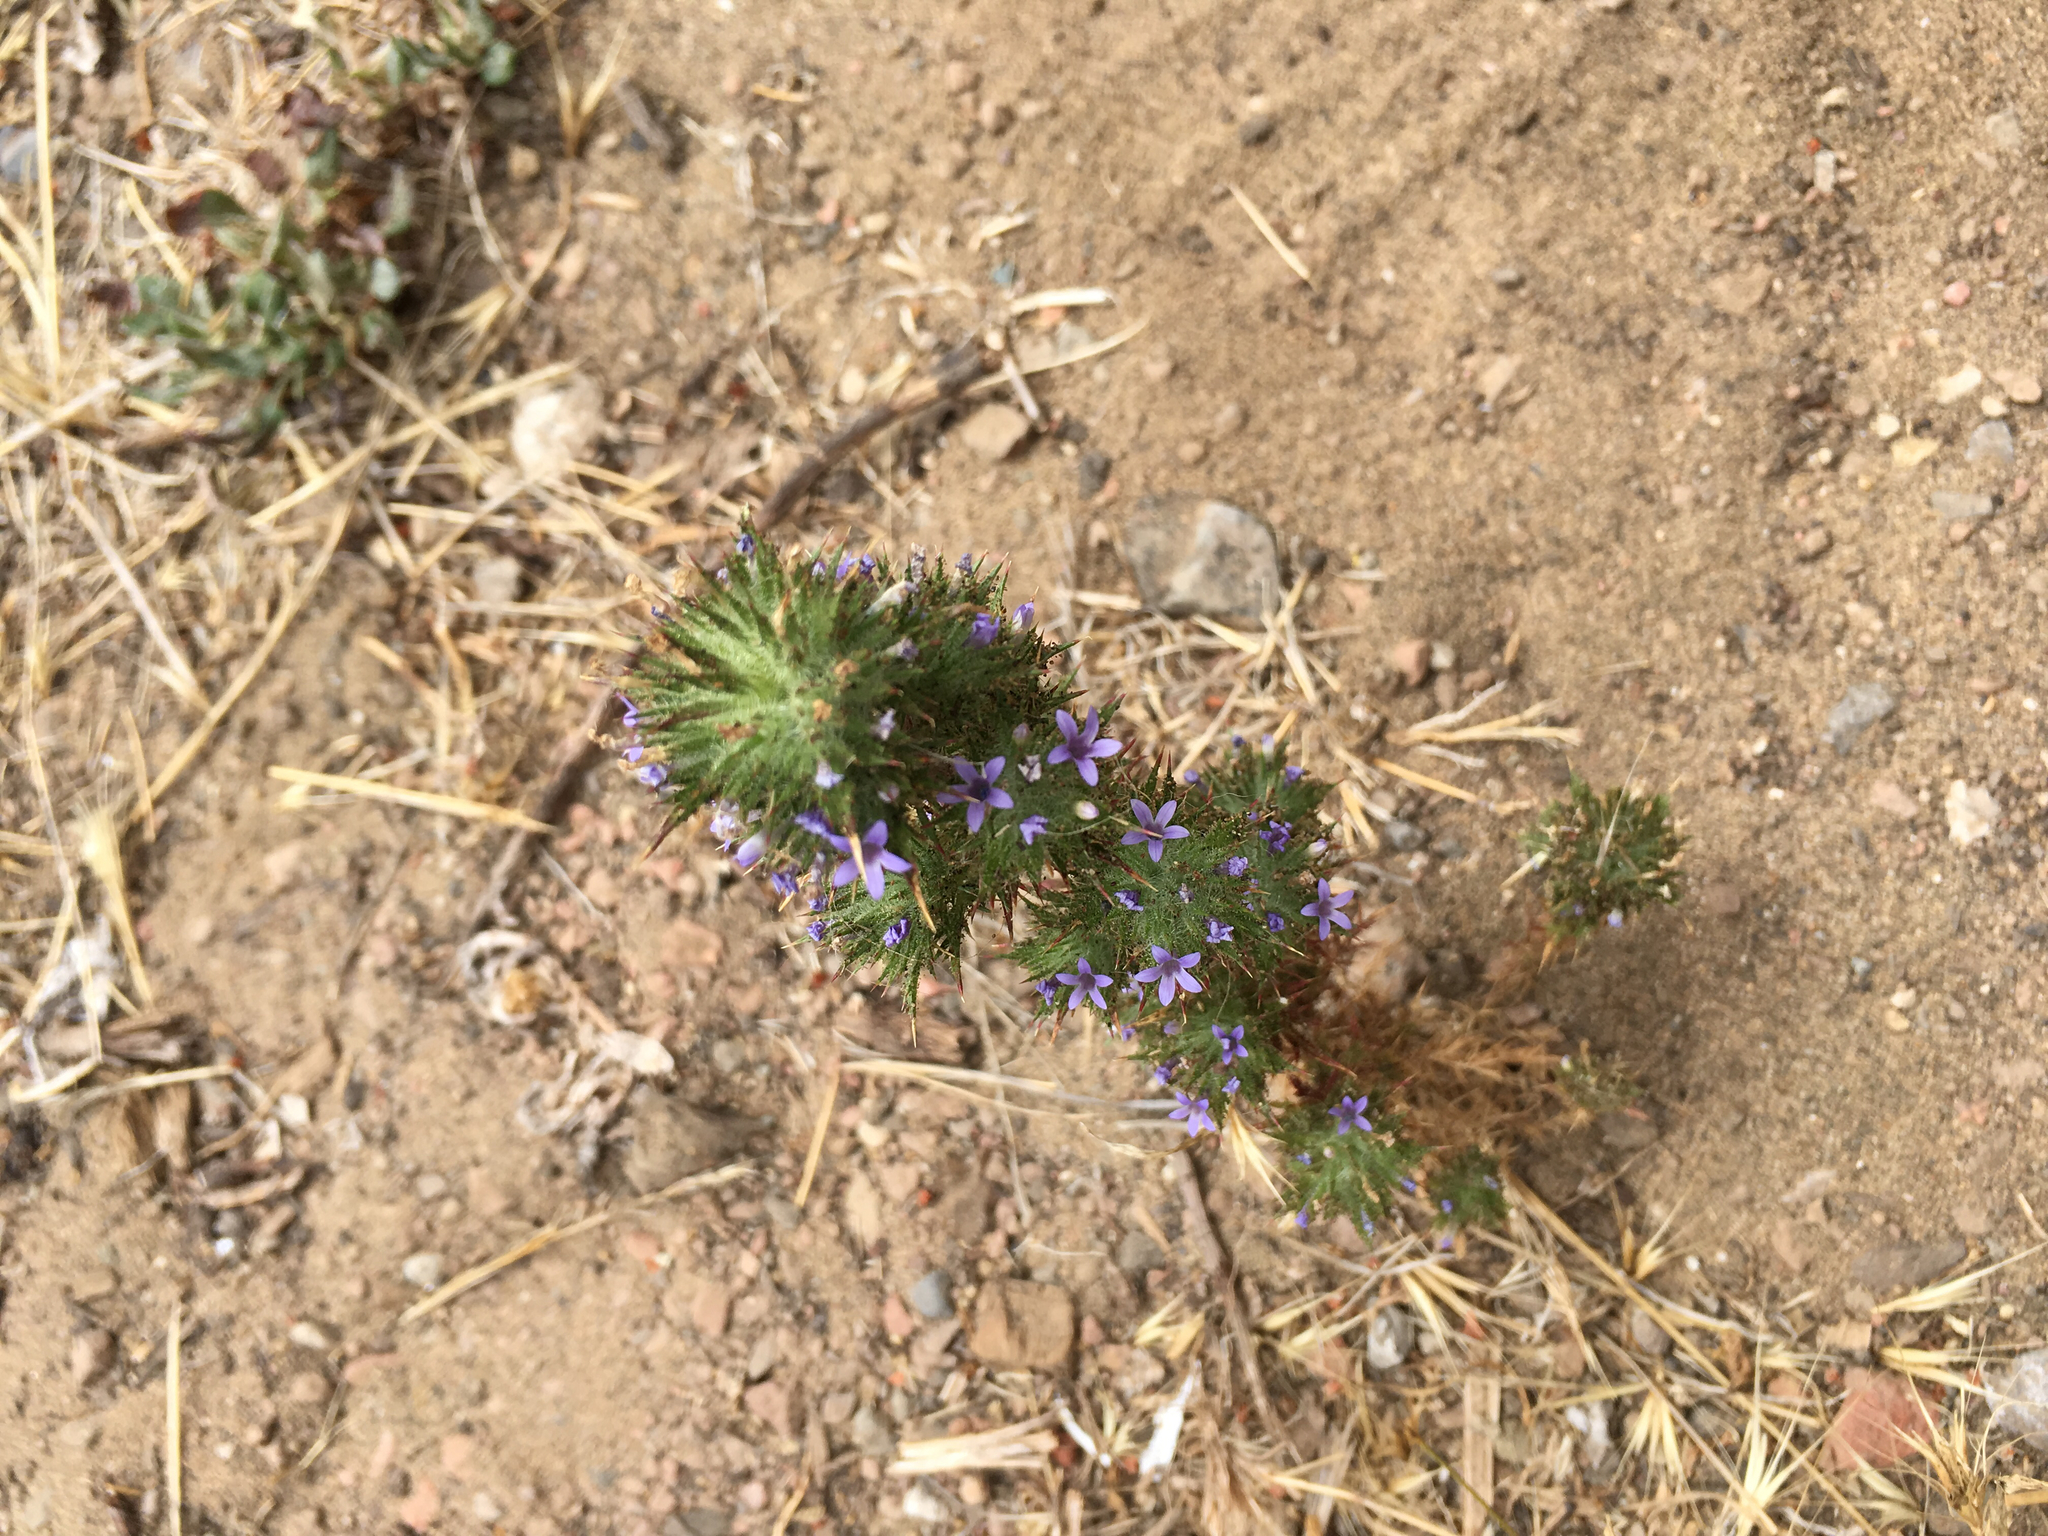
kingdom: Plantae
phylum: Tracheophyta
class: Magnoliopsida
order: Ericales
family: Polemoniaceae
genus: Navarretia
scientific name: Navarretia squarrosa
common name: Skunkweed
